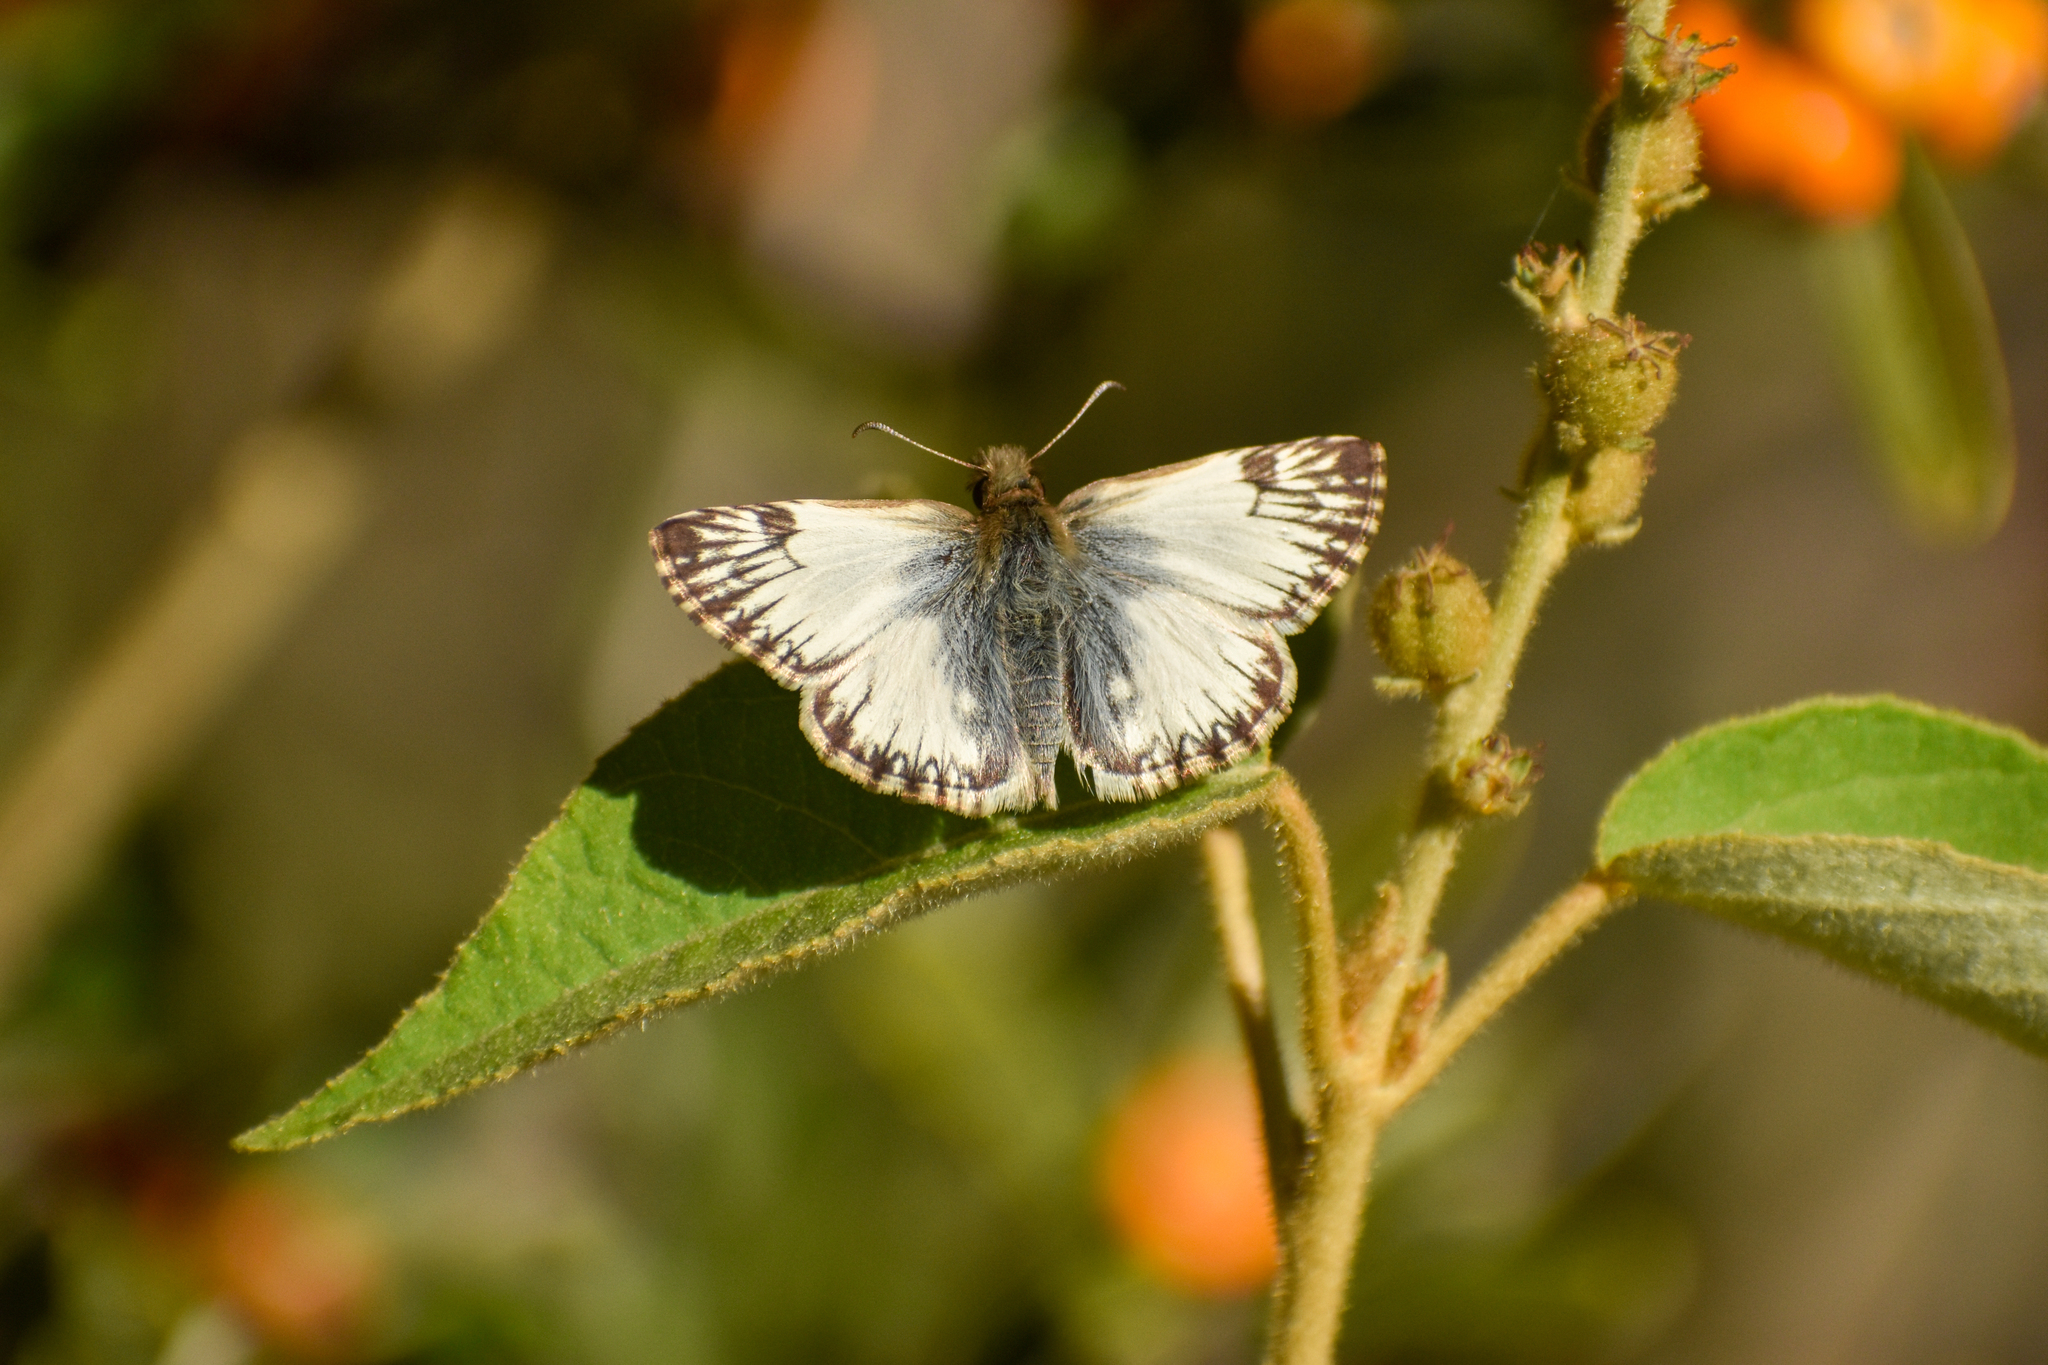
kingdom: Animalia
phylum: Arthropoda
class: Insecta
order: Lepidoptera
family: Hesperiidae
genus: Heliopetes
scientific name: Heliopetes omrina
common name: Stained white-skipper
